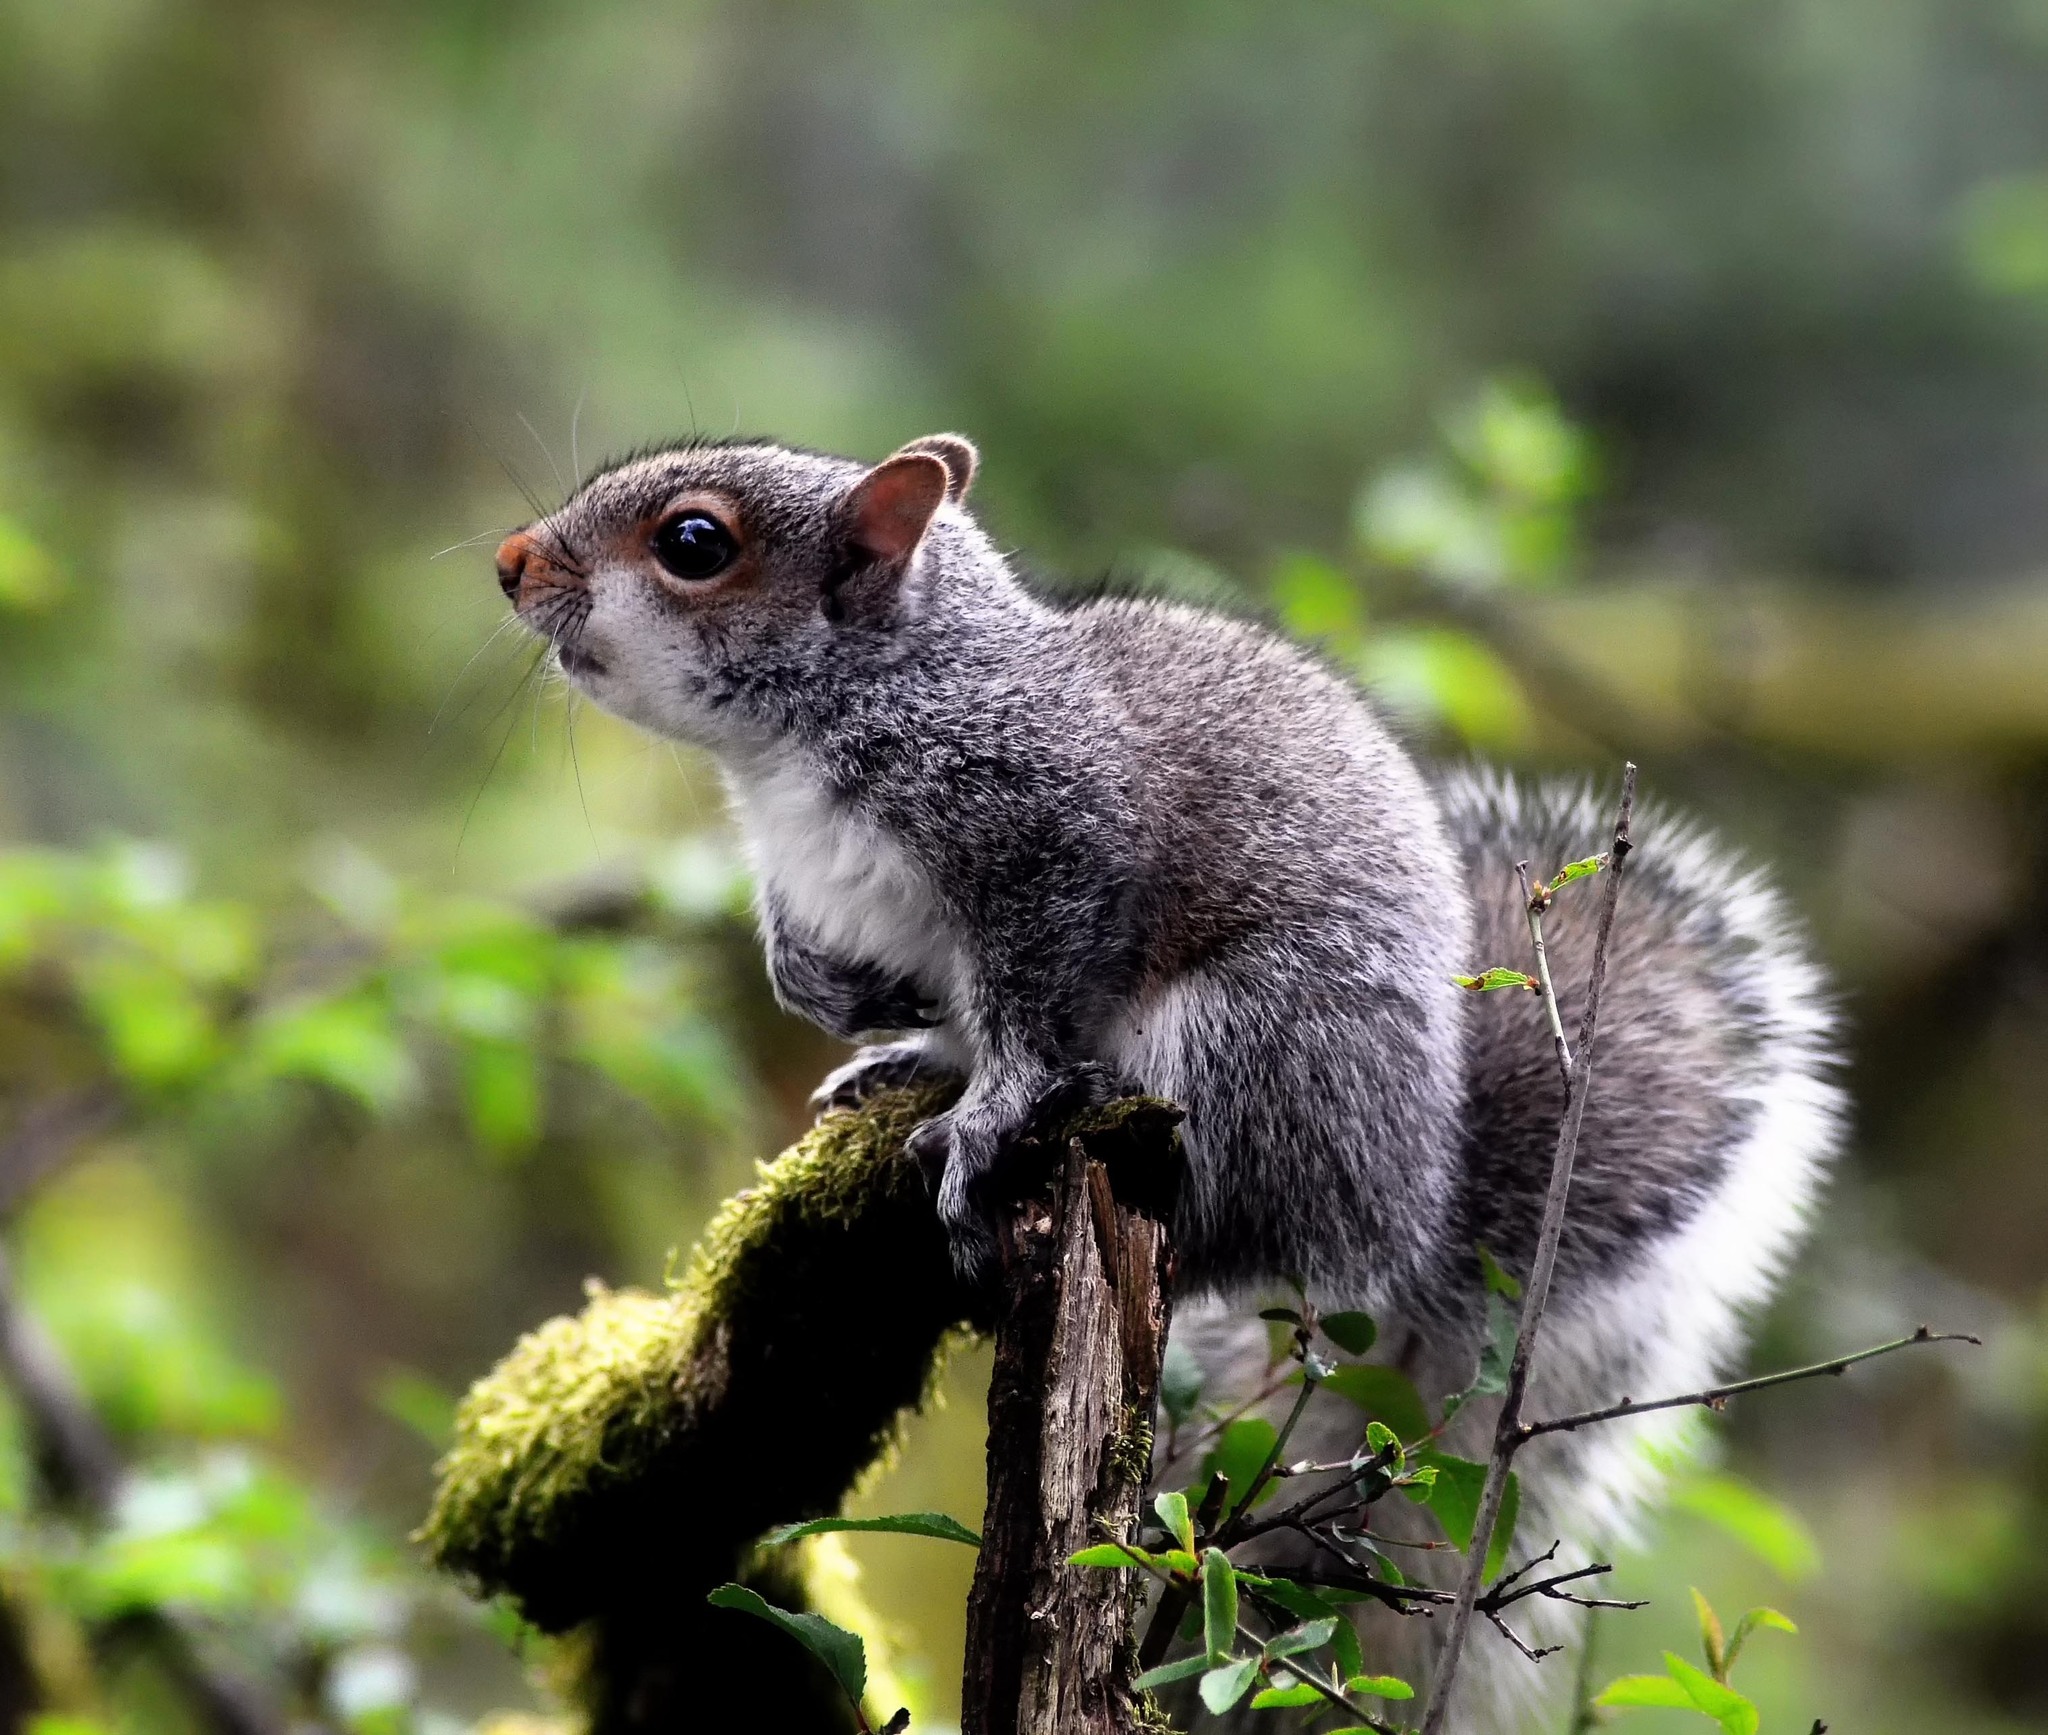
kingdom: Animalia
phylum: Chordata
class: Mammalia
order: Rodentia
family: Sciuridae
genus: Sciurus
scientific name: Sciurus carolinensis
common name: Eastern gray squirrel
